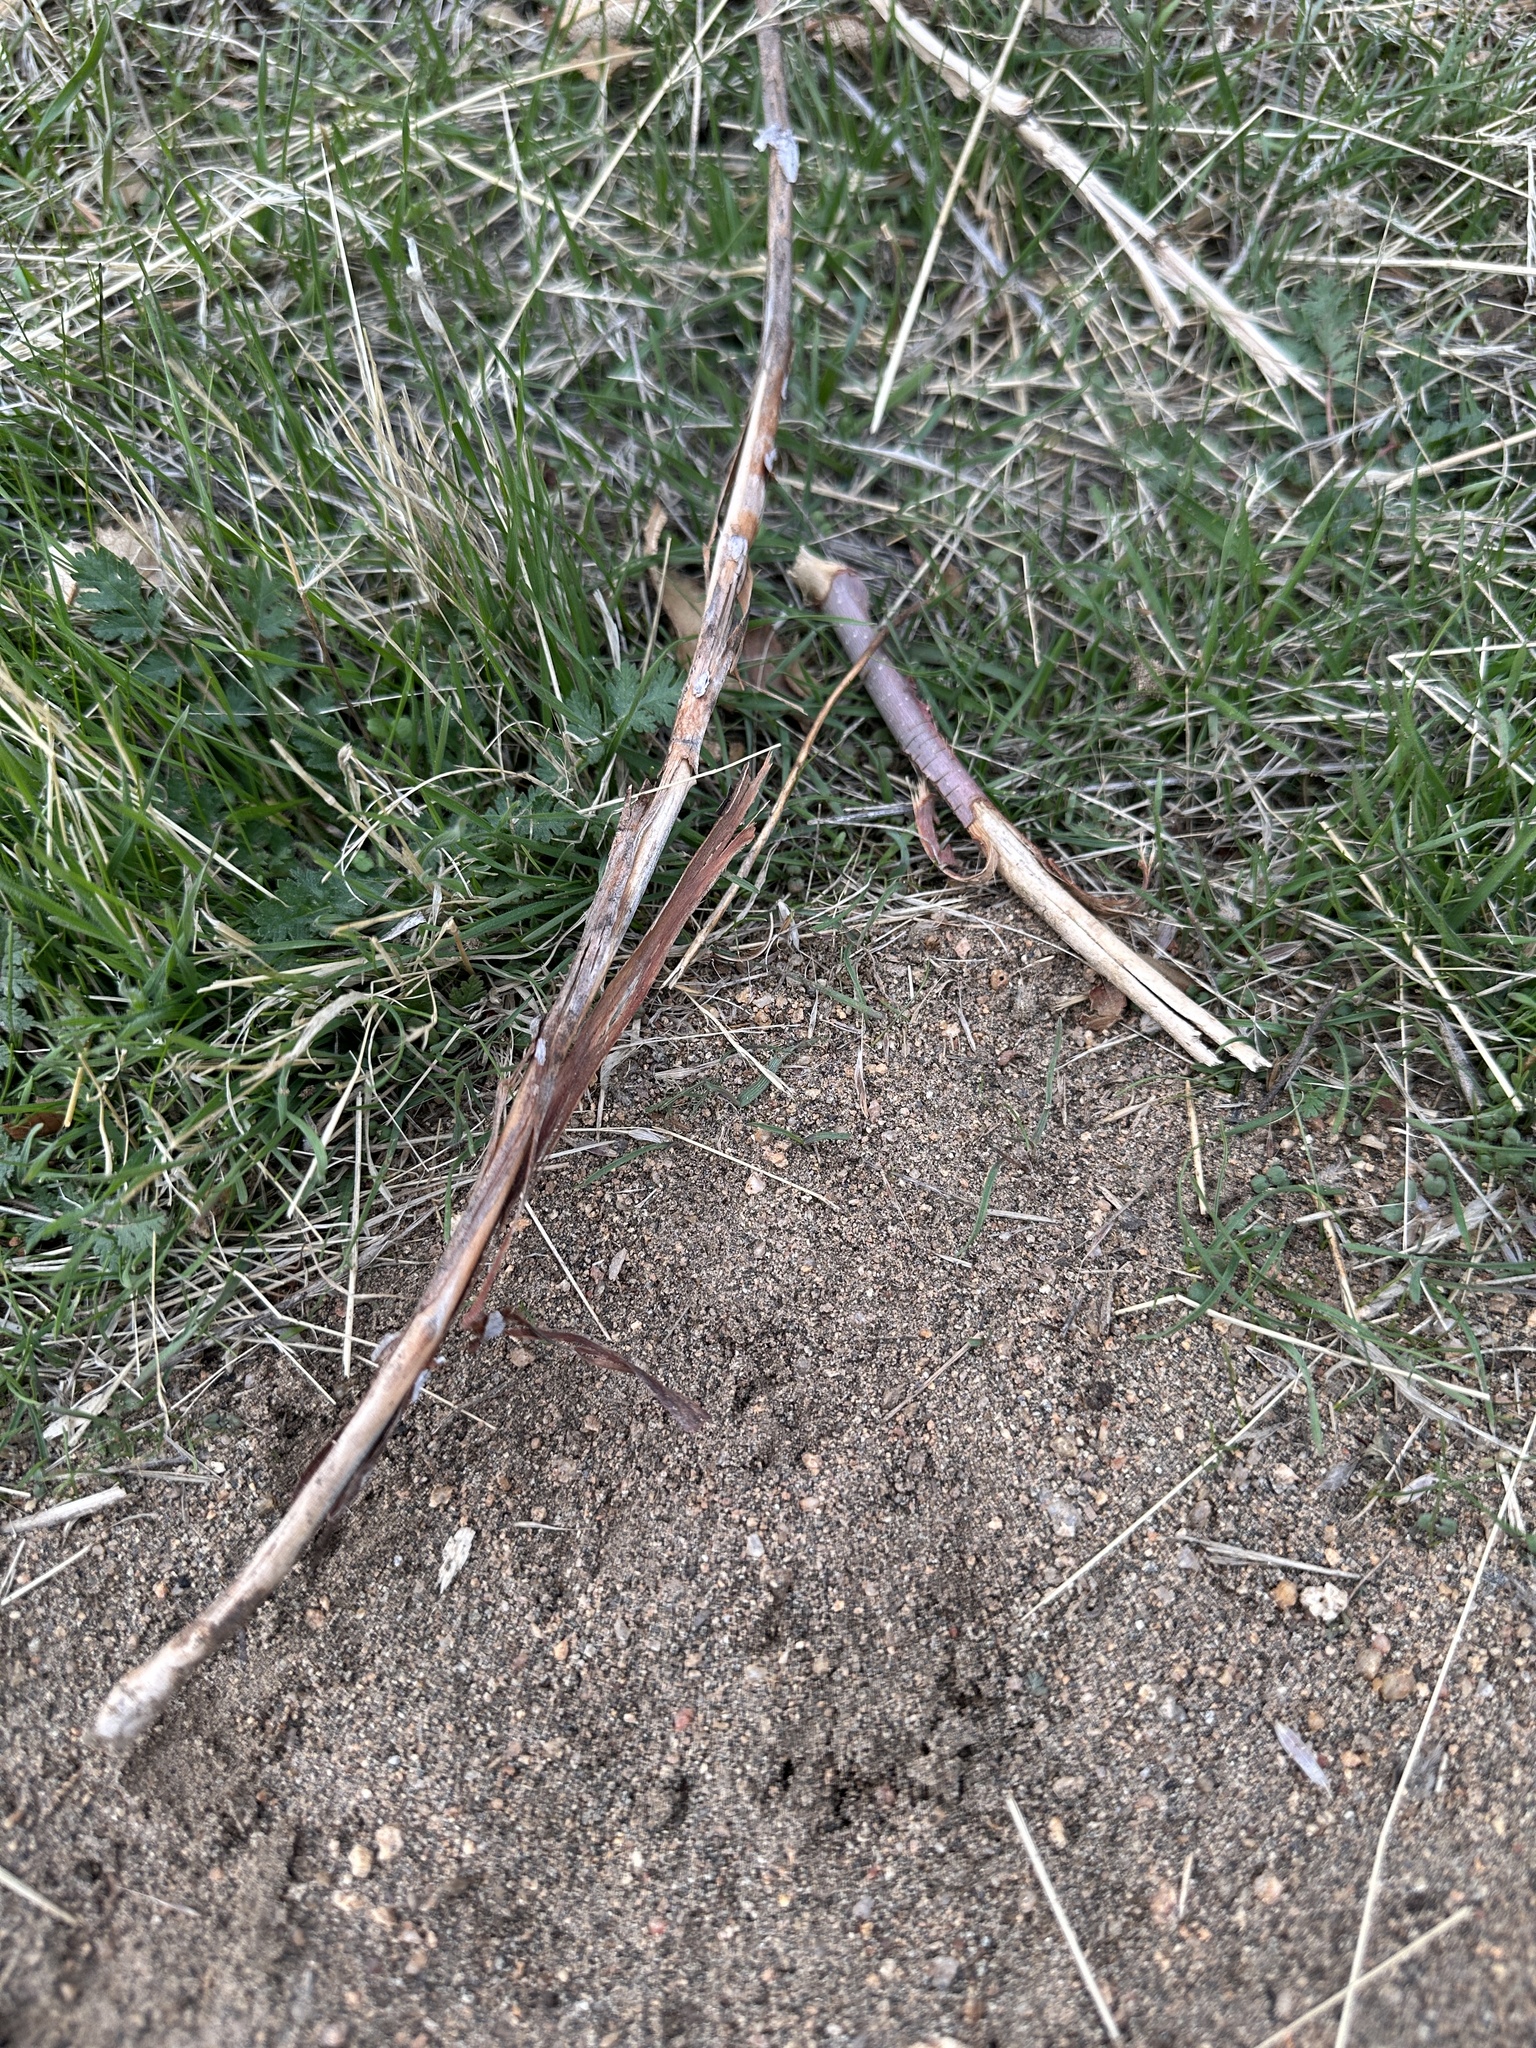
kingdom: Animalia
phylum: Chordata
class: Mammalia
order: Rodentia
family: Sciuridae
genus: Otospermophilus
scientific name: Otospermophilus beecheyi
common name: California ground squirrel
